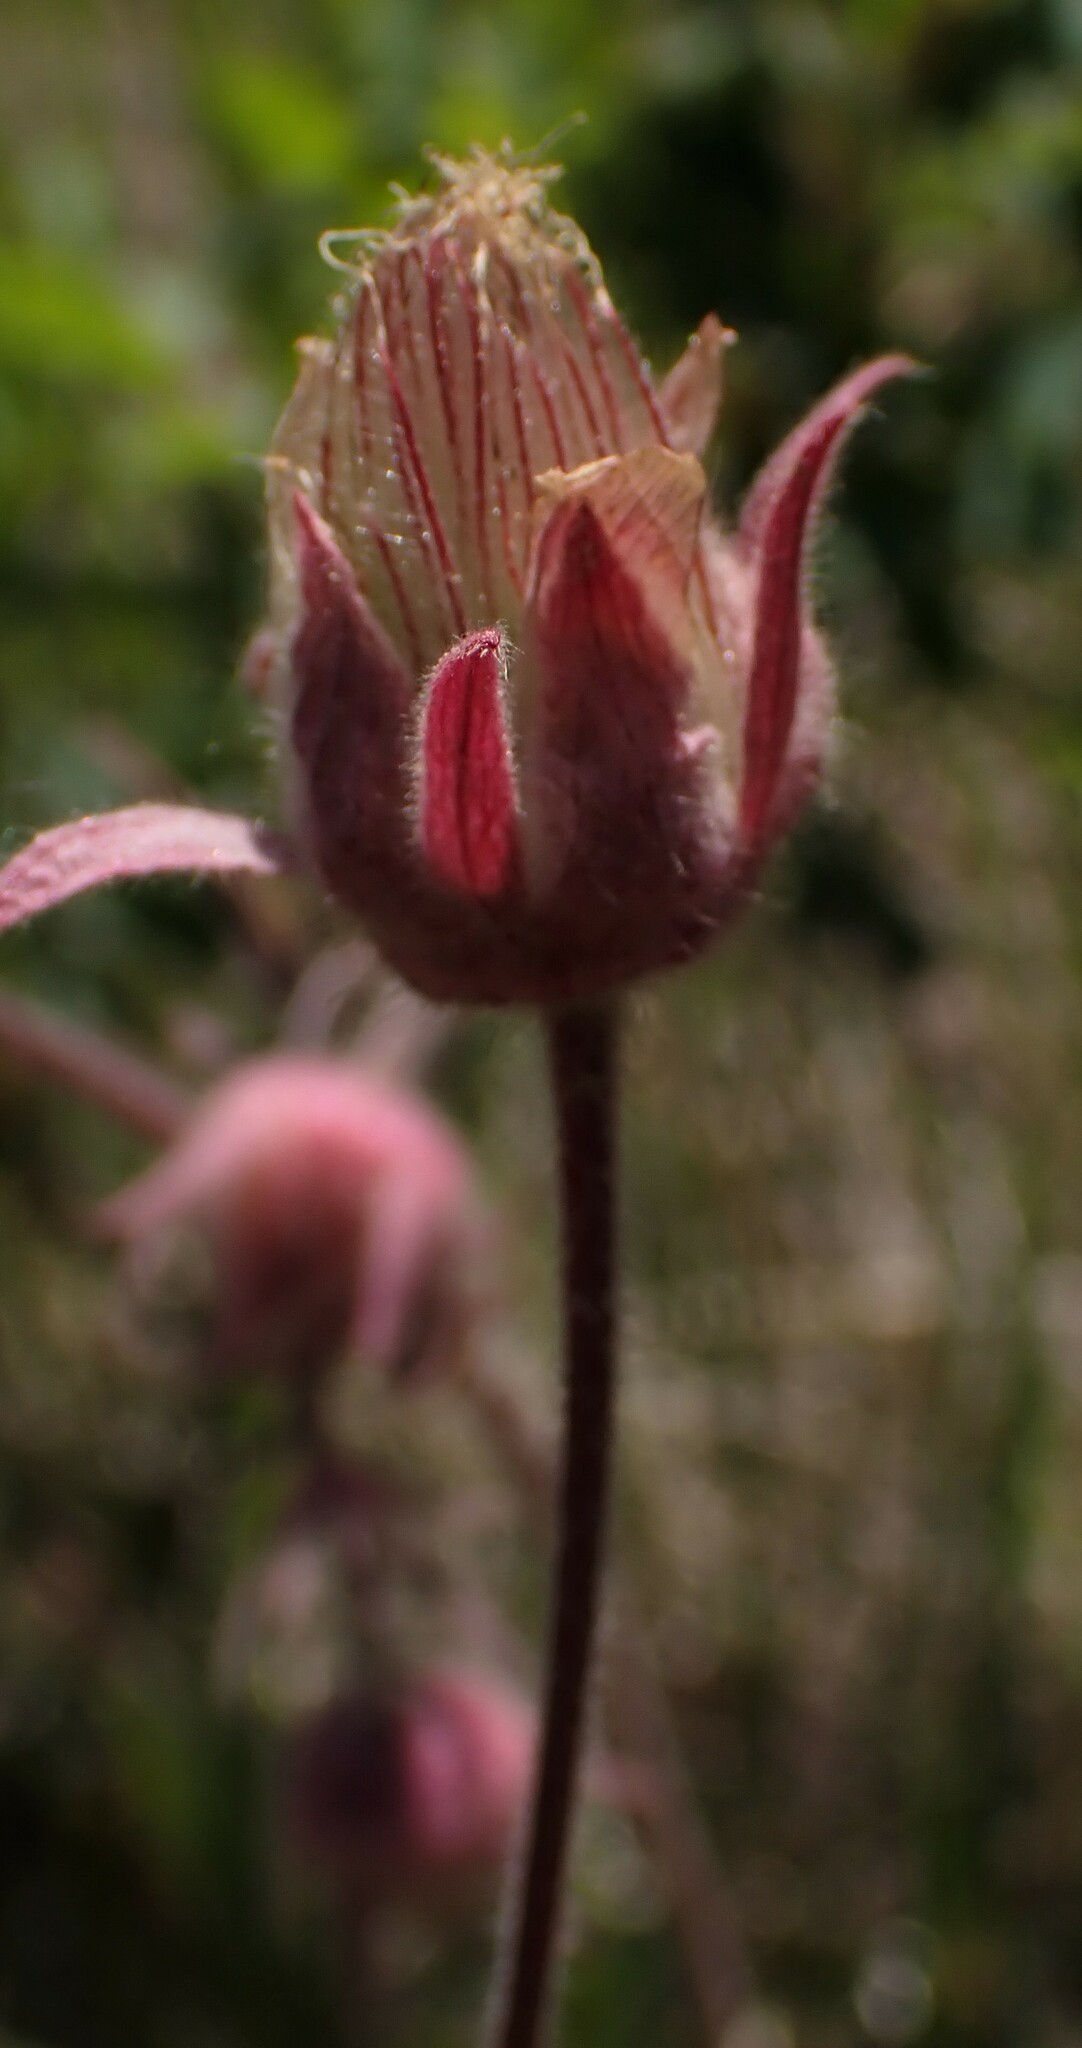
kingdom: Plantae
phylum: Tracheophyta
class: Magnoliopsida
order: Rosales
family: Rosaceae
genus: Geum
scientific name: Geum triflorum
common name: Old man's whiskers
